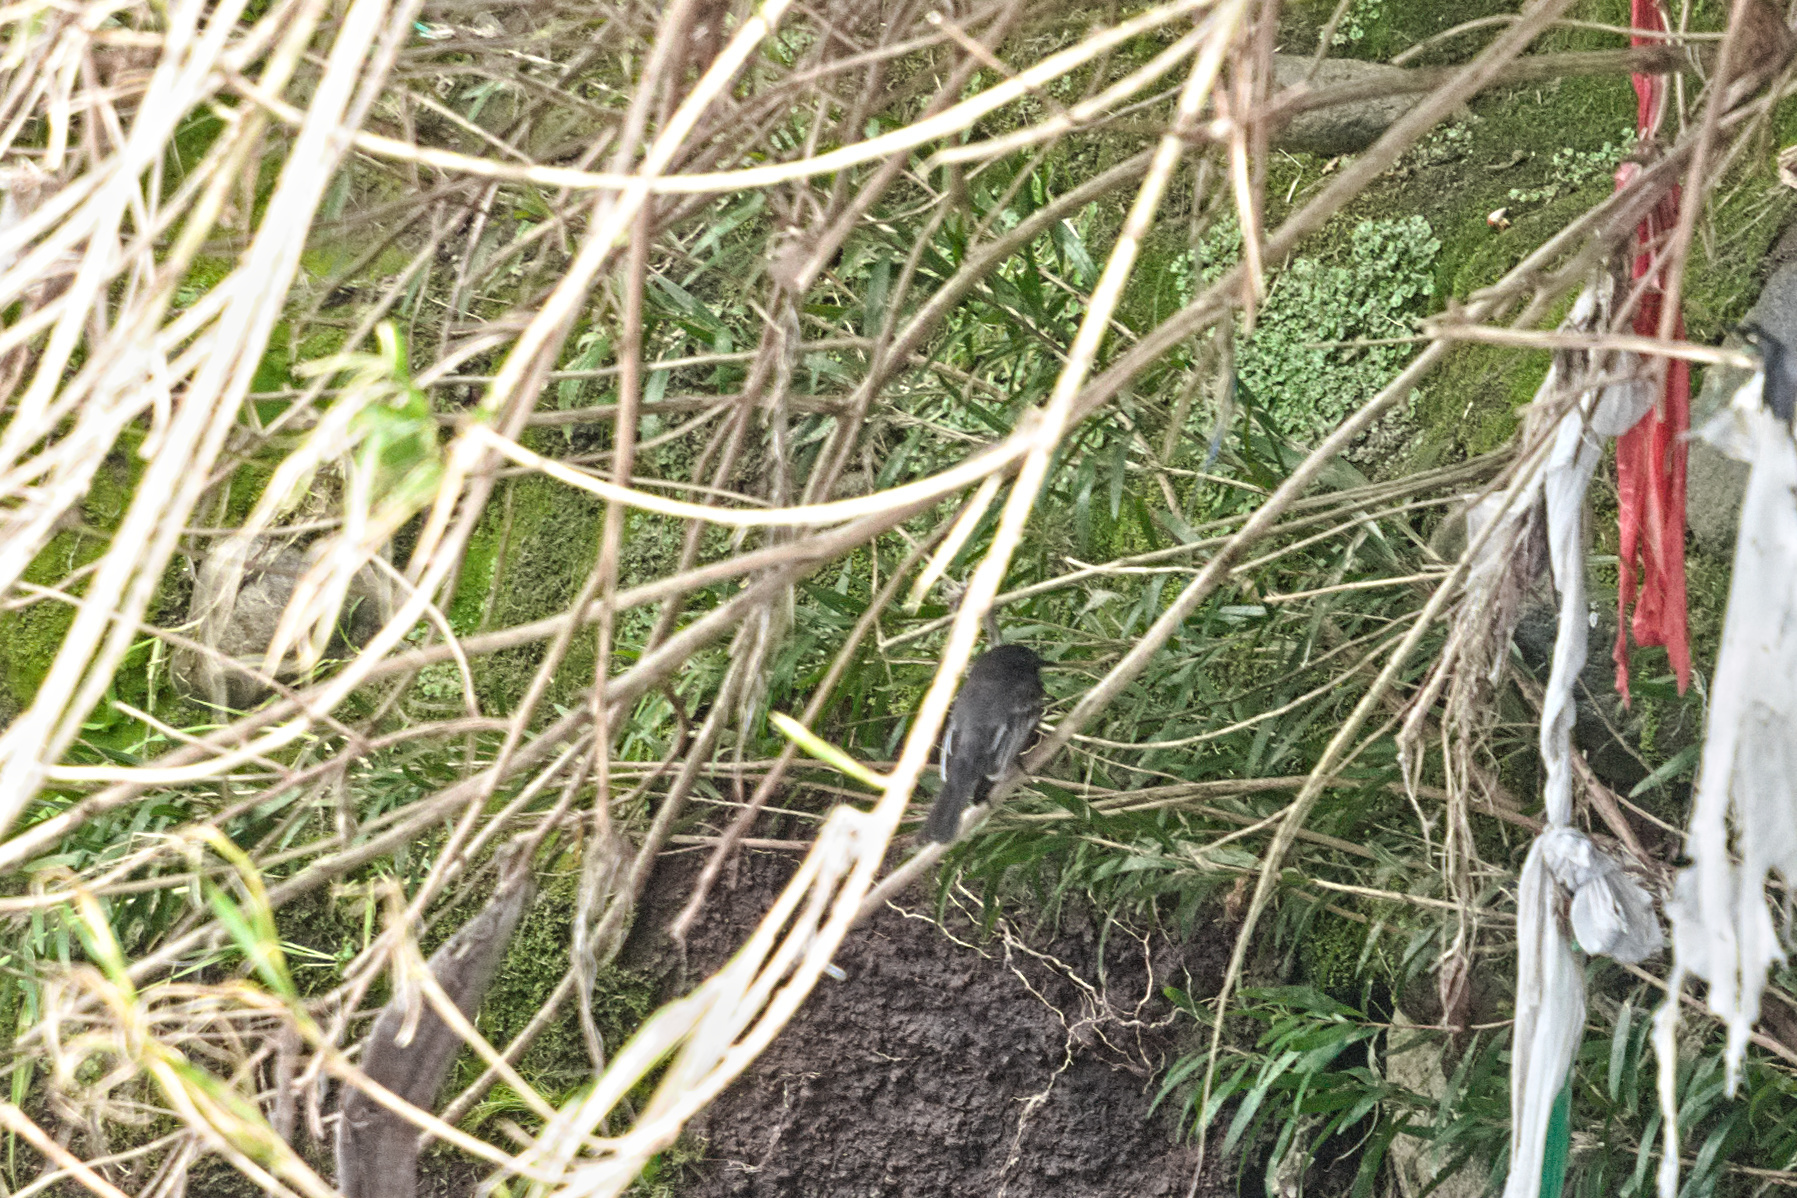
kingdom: Animalia
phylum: Chordata
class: Aves
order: Passeriformes
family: Tyrannidae
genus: Sayornis
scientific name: Sayornis nigricans
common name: Black phoebe
